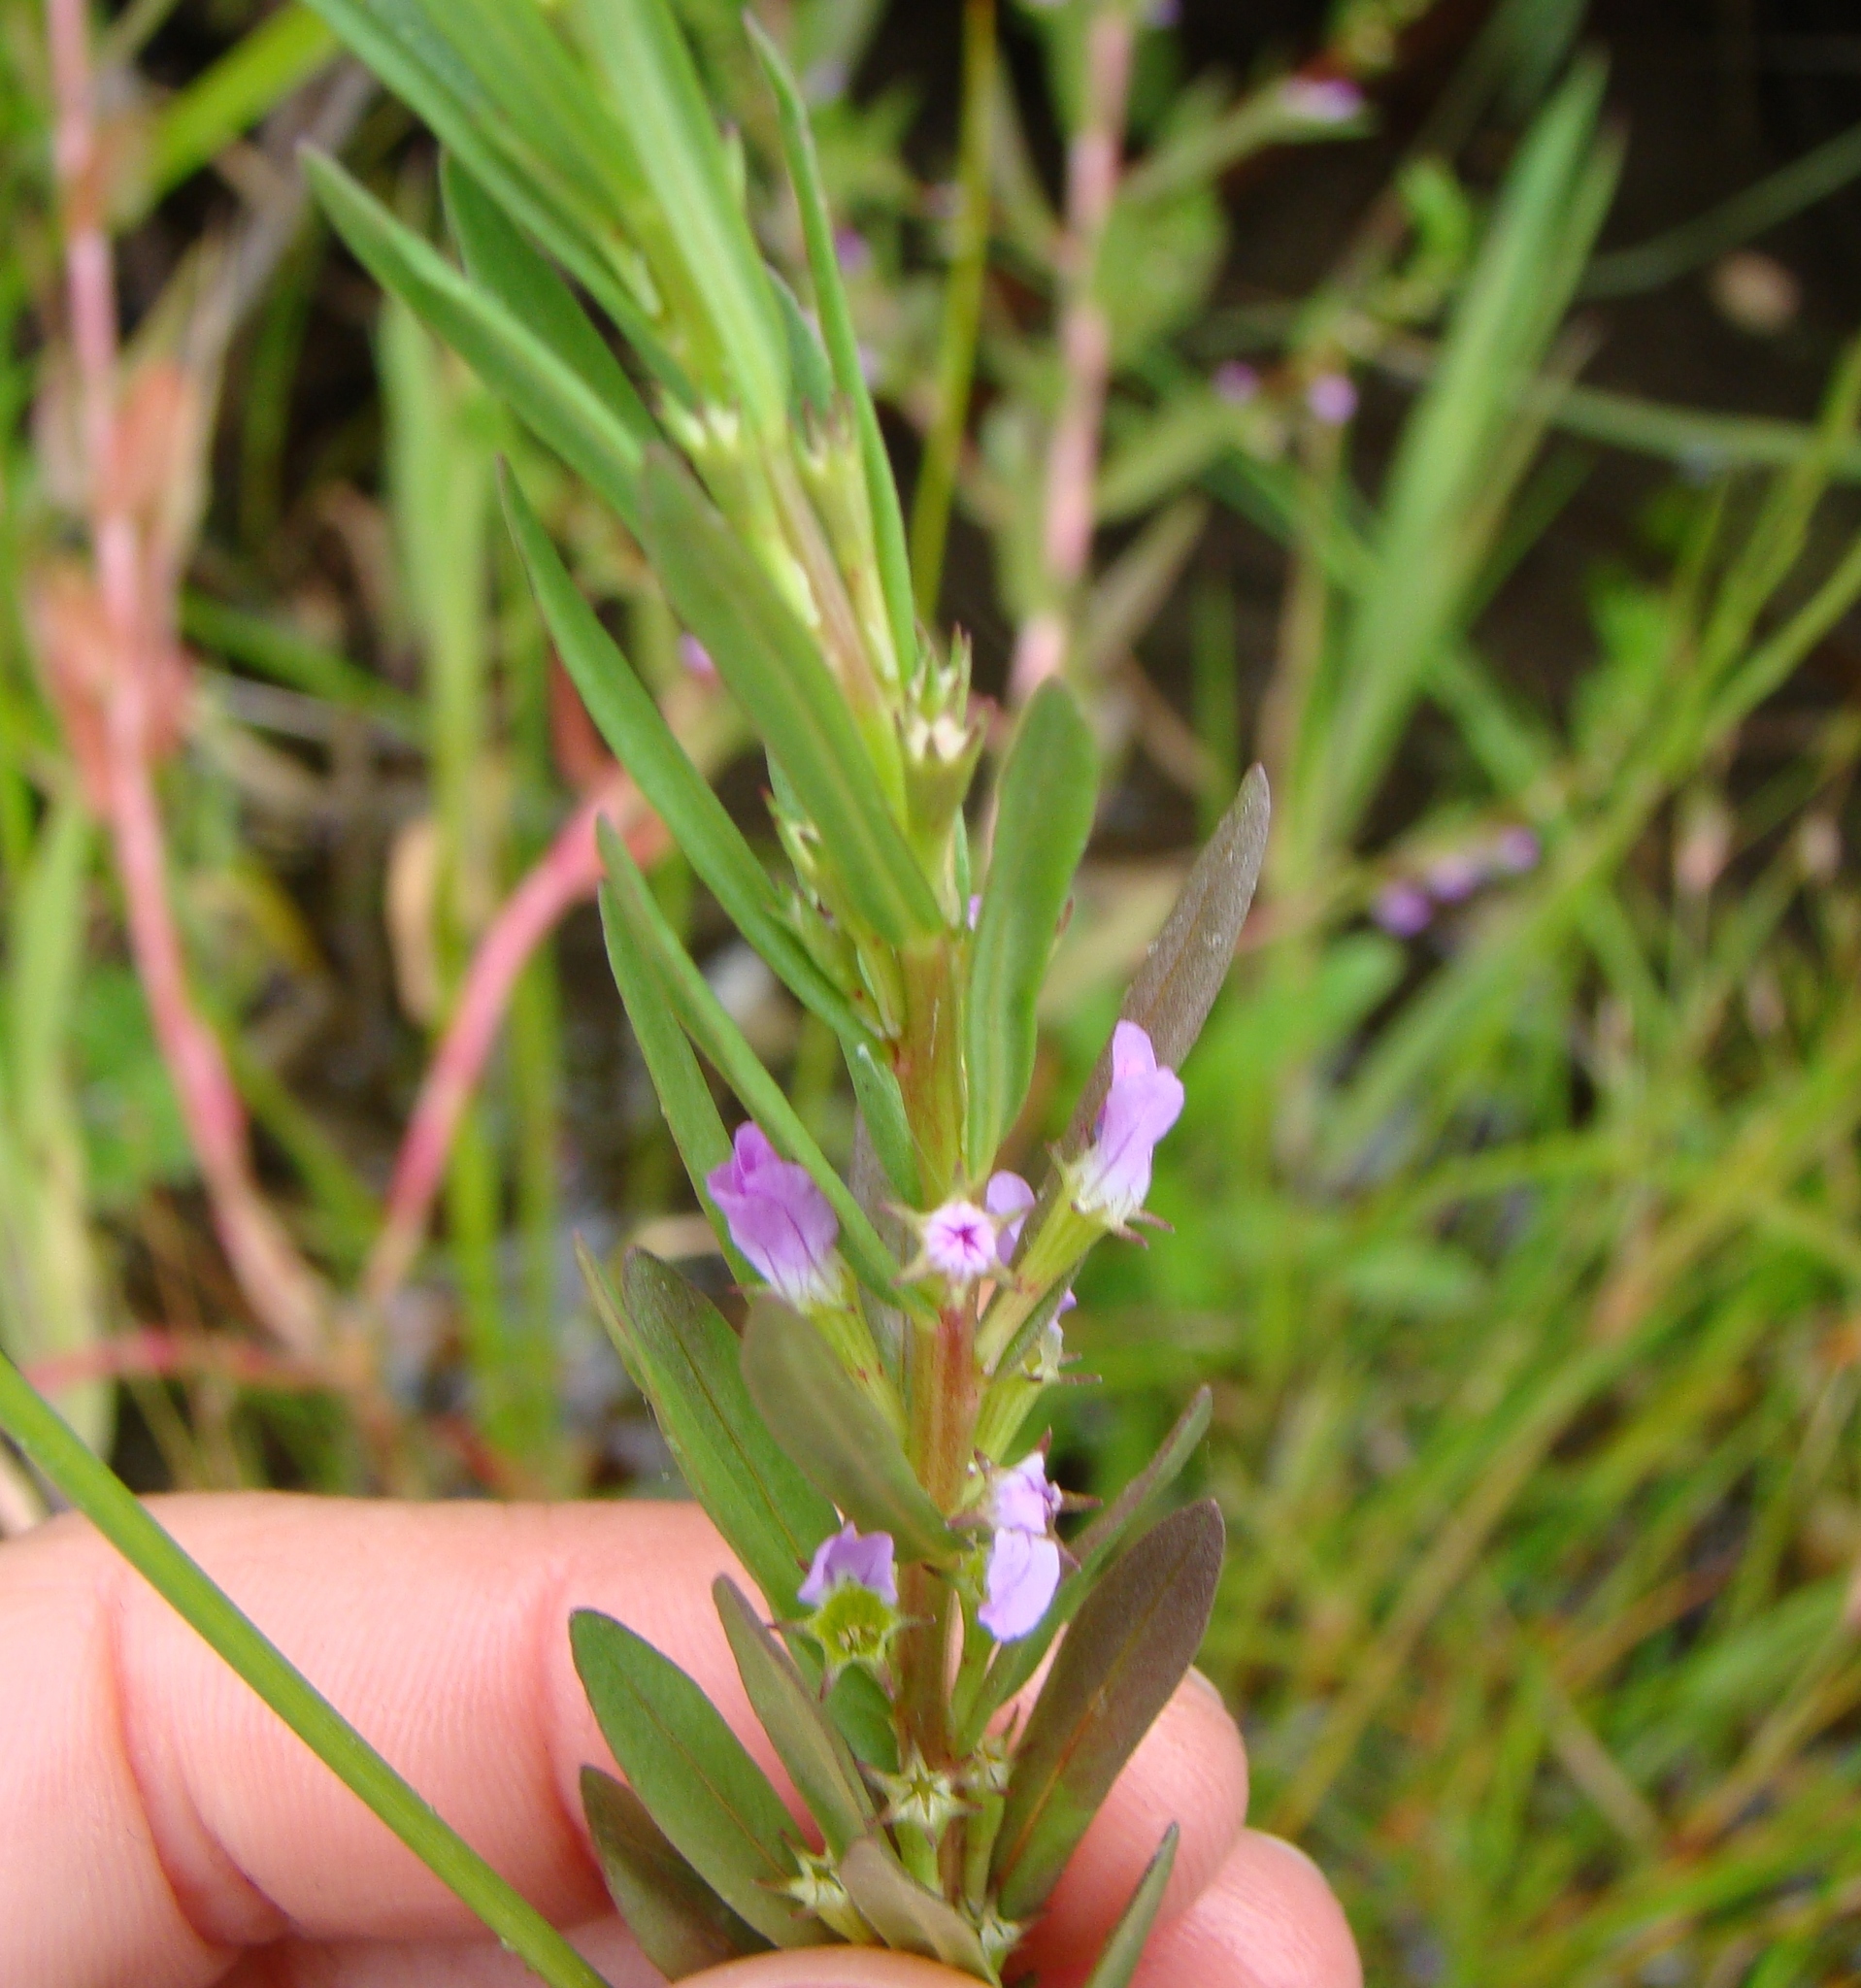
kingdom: Plantae
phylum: Tracheophyta
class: Magnoliopsida
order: Myrtales
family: Lythraceae
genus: Lythrum
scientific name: Lythrum hyssopifolia
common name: Grass-poly
